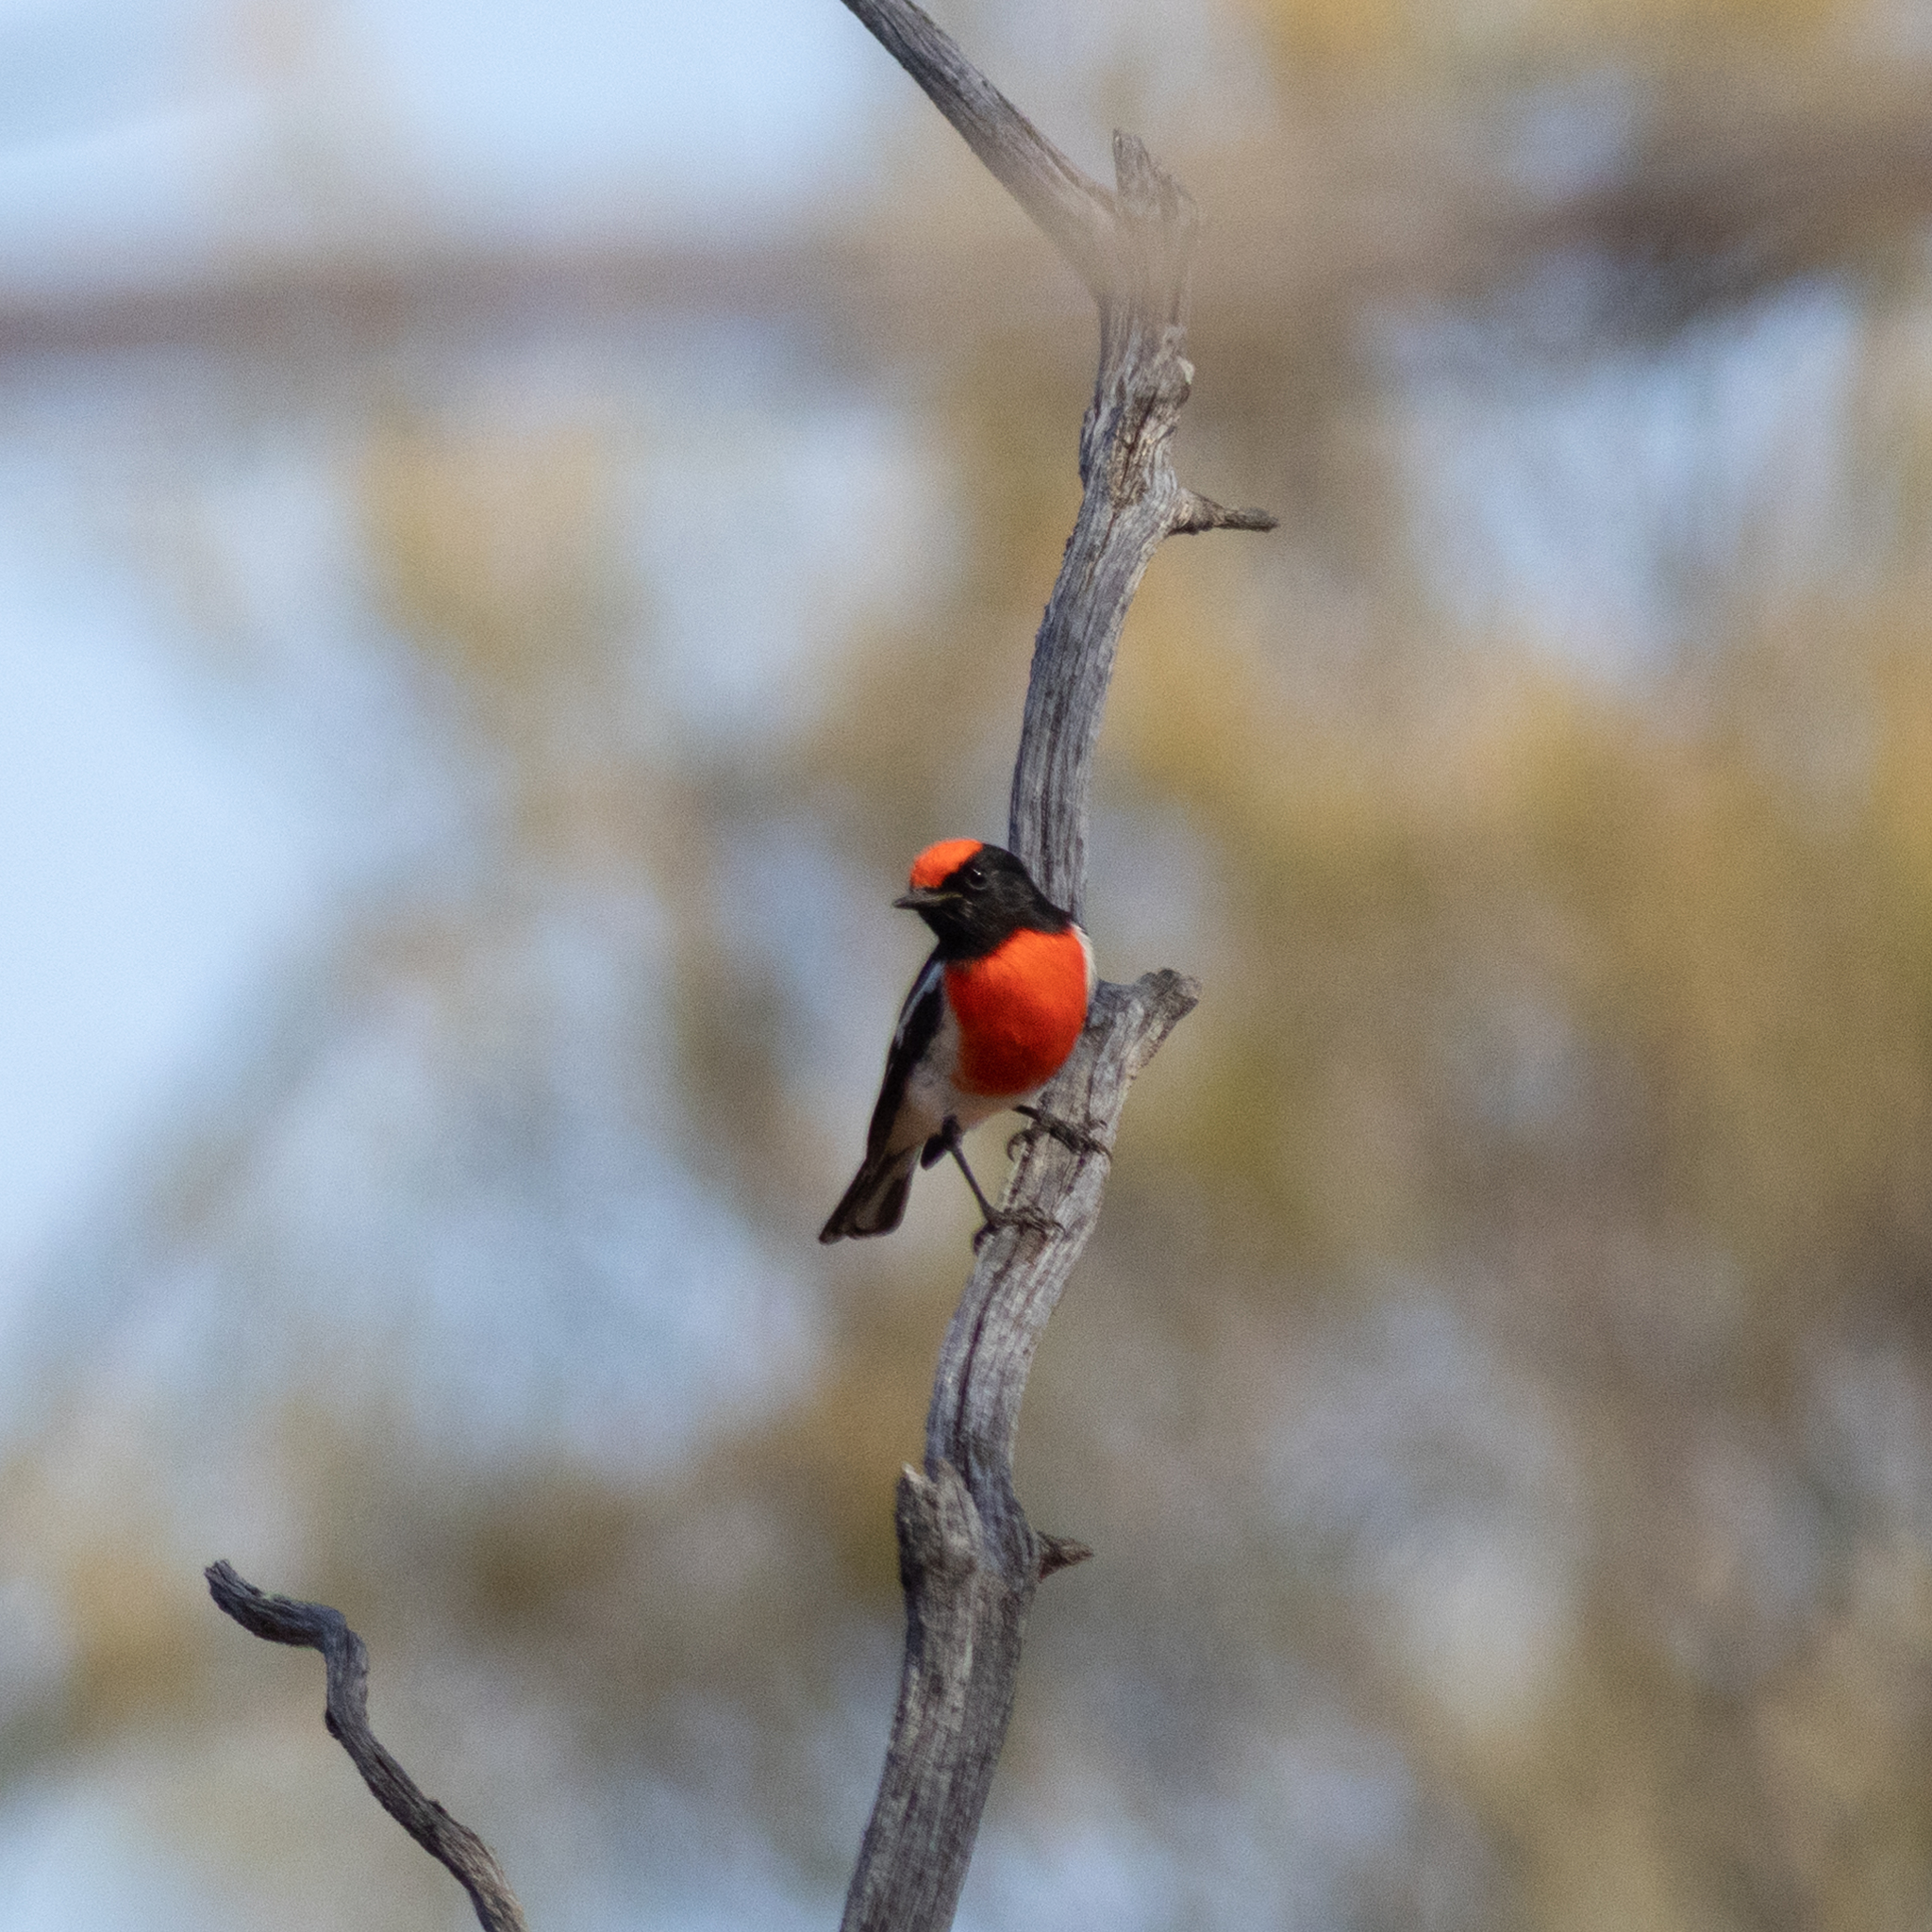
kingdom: Animalia
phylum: Chordata
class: Aves
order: Passeriformes
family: Petroicidae
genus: Petroica
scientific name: Petroica goodenovii
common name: Red-capped robin
